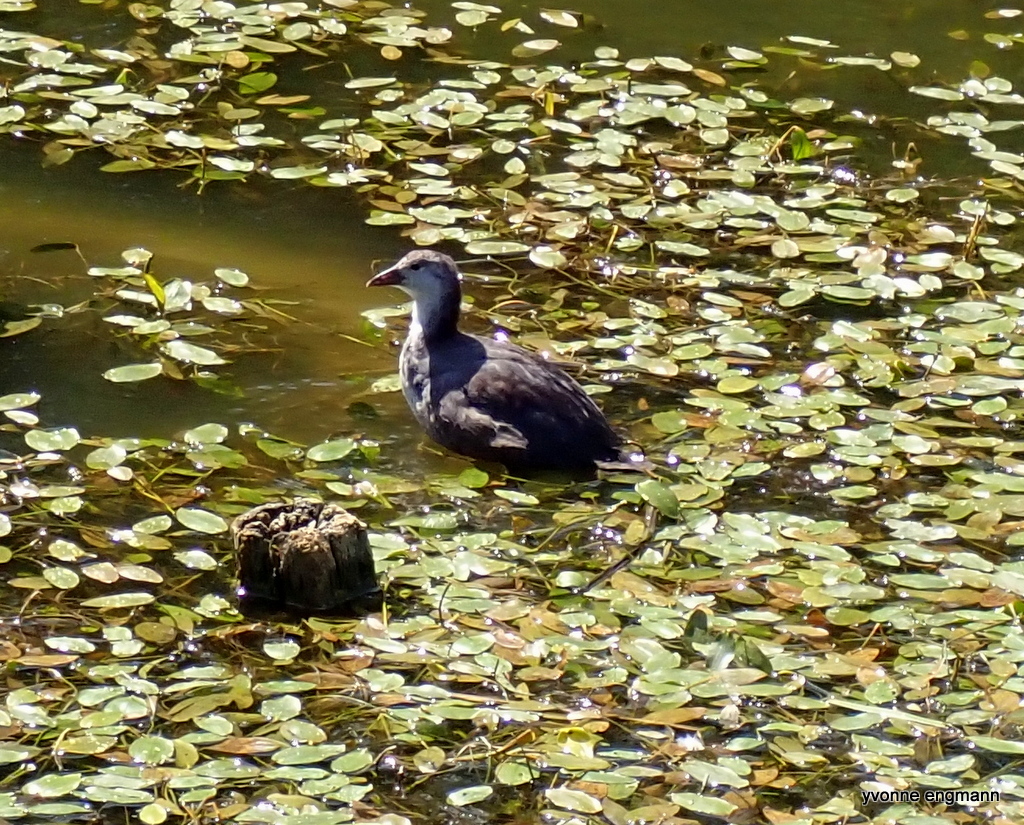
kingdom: Animalia
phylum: Chordata
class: Aves
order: Gruiformes
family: Rallidae
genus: Fulica
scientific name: Fulica atra
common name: Eurasian coot
